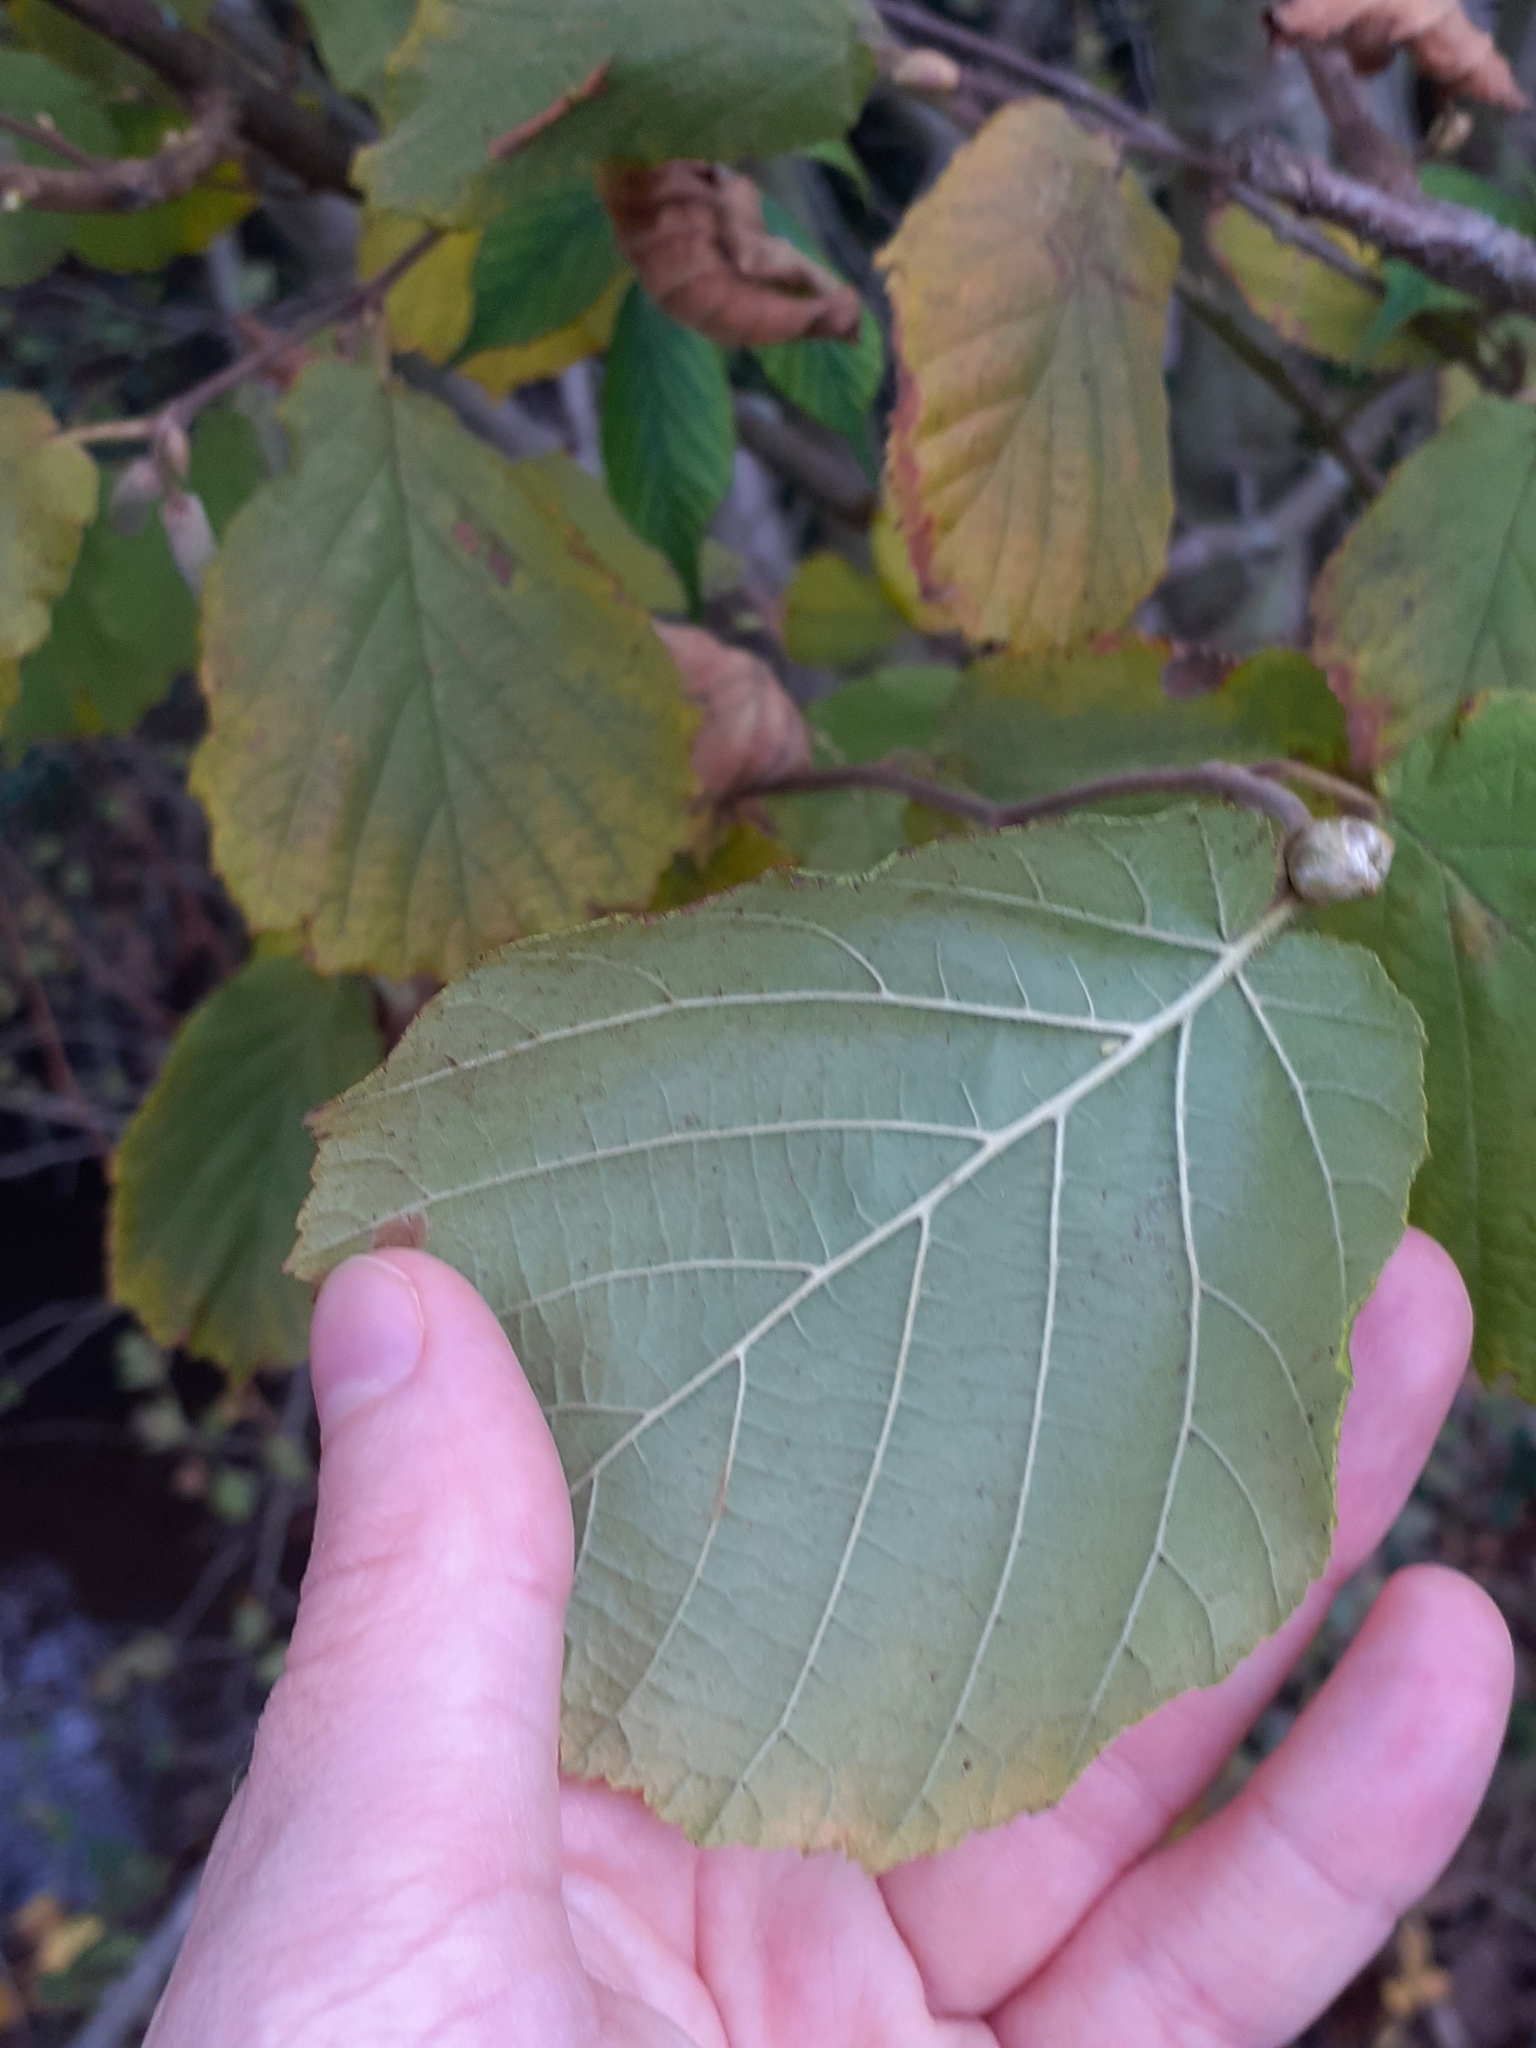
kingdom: Plantae
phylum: Tracheophyta
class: Magnoliopsida
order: Fagales
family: Betulaceae
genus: Corylus
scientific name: Corylus avellana
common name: European hazel
